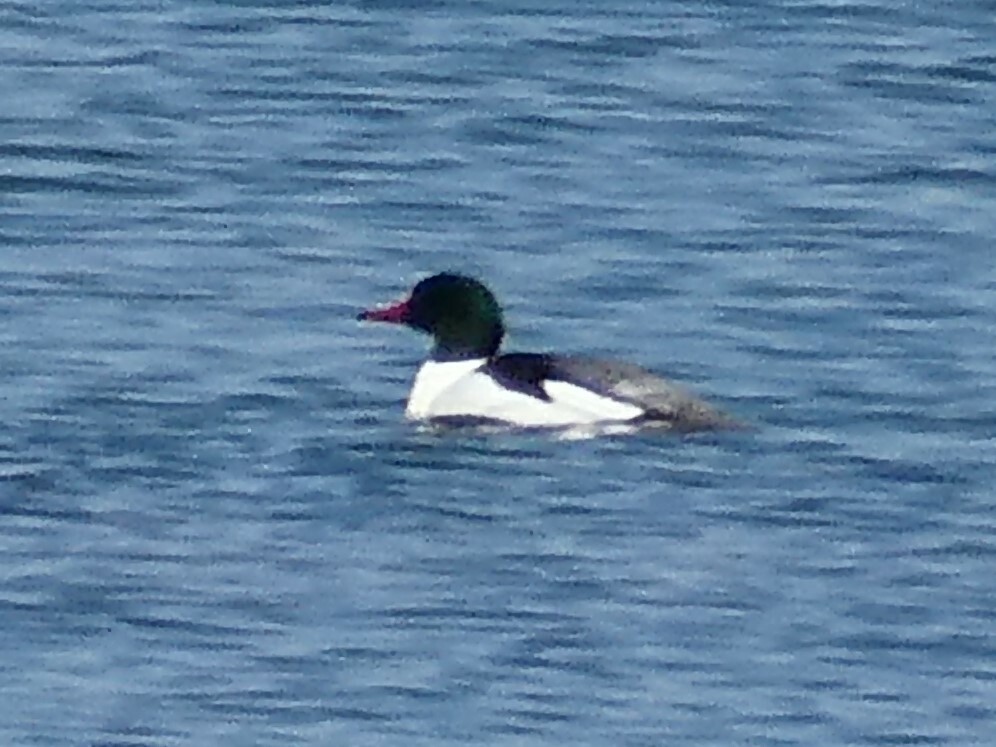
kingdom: Animalia
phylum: Chordata
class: Aves
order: Anseriformes
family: Anatidae
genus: Mergus
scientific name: Mergus merganser
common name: Common merganser
